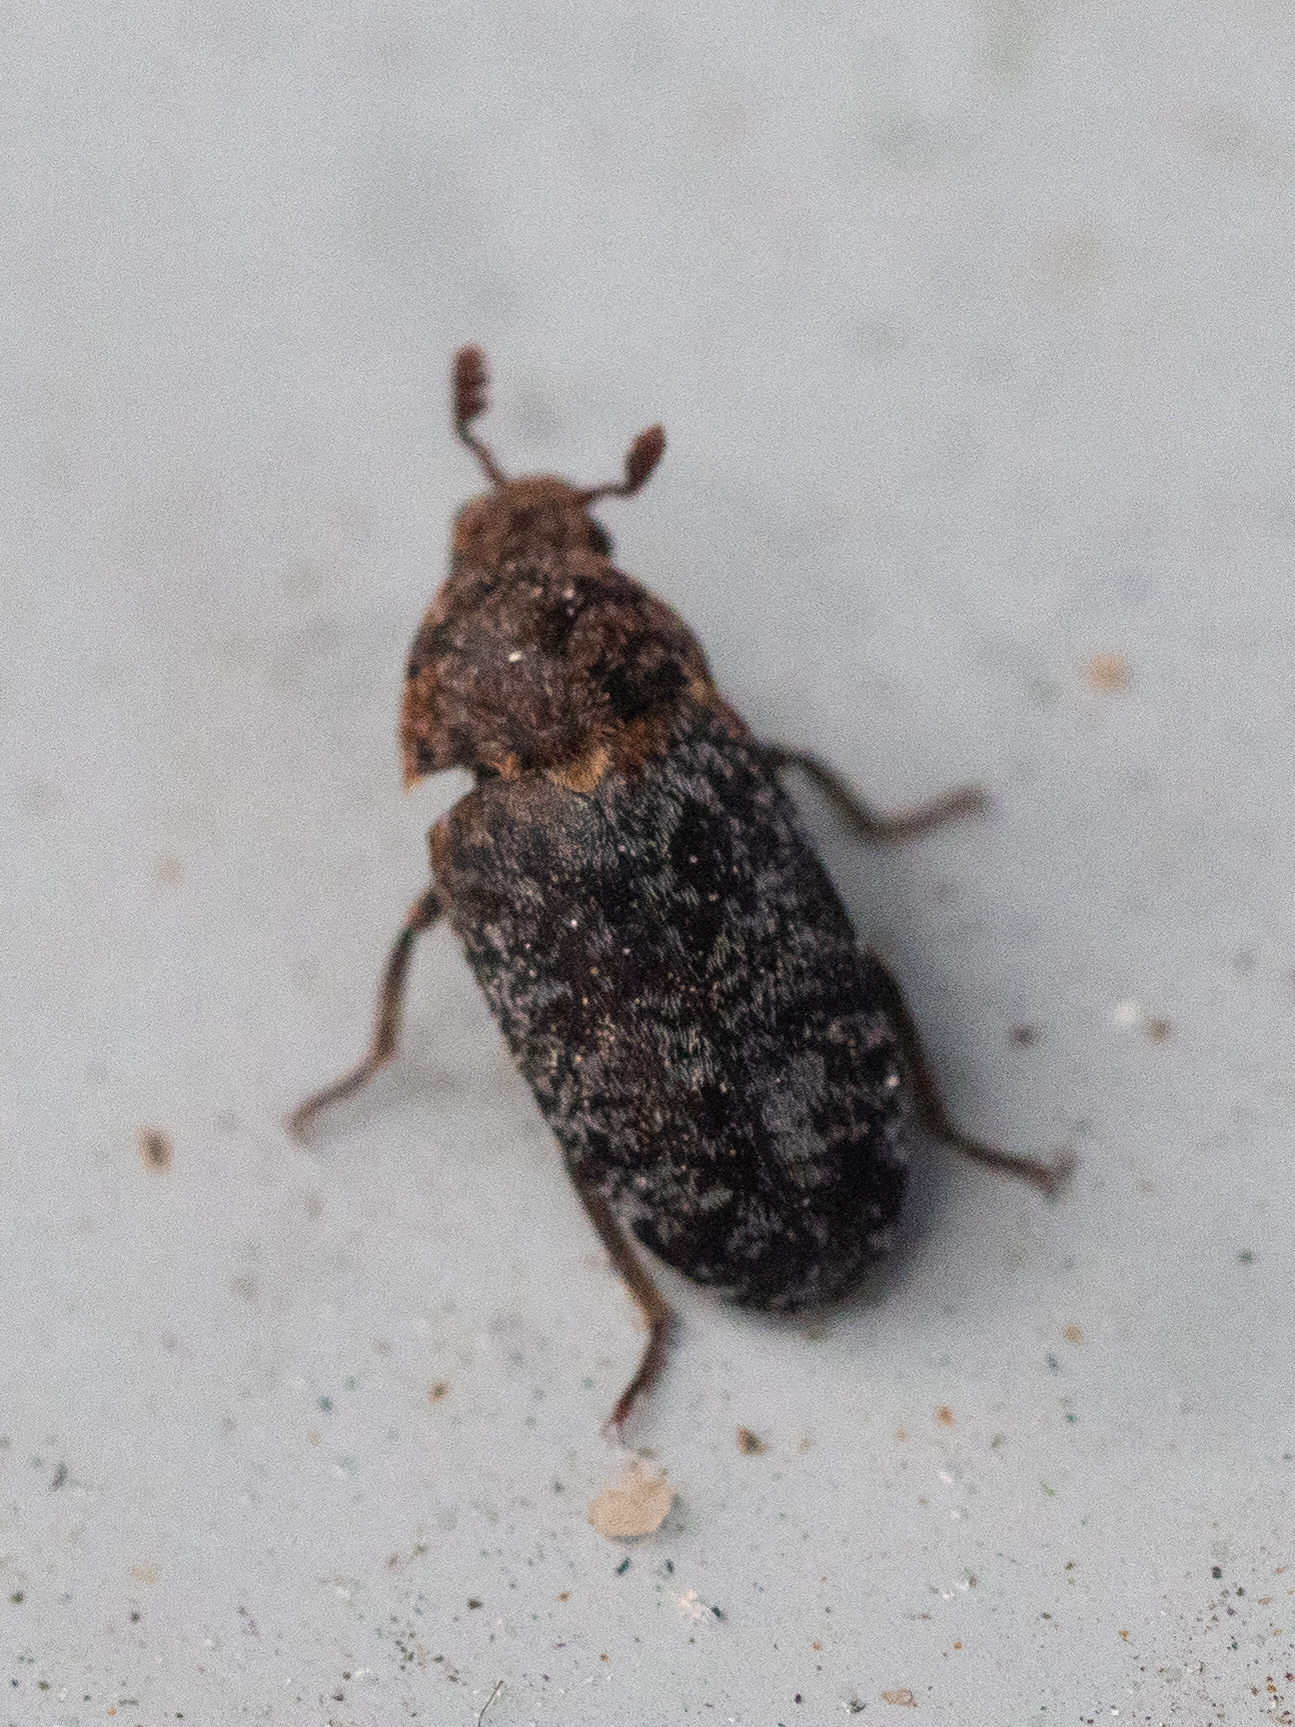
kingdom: Animalia
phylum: Arthropoda
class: Insecta
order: Coleoptera
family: Dermestidae
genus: Dermestes
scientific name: Dermestes undulatus
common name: Wavy carpet beetle
